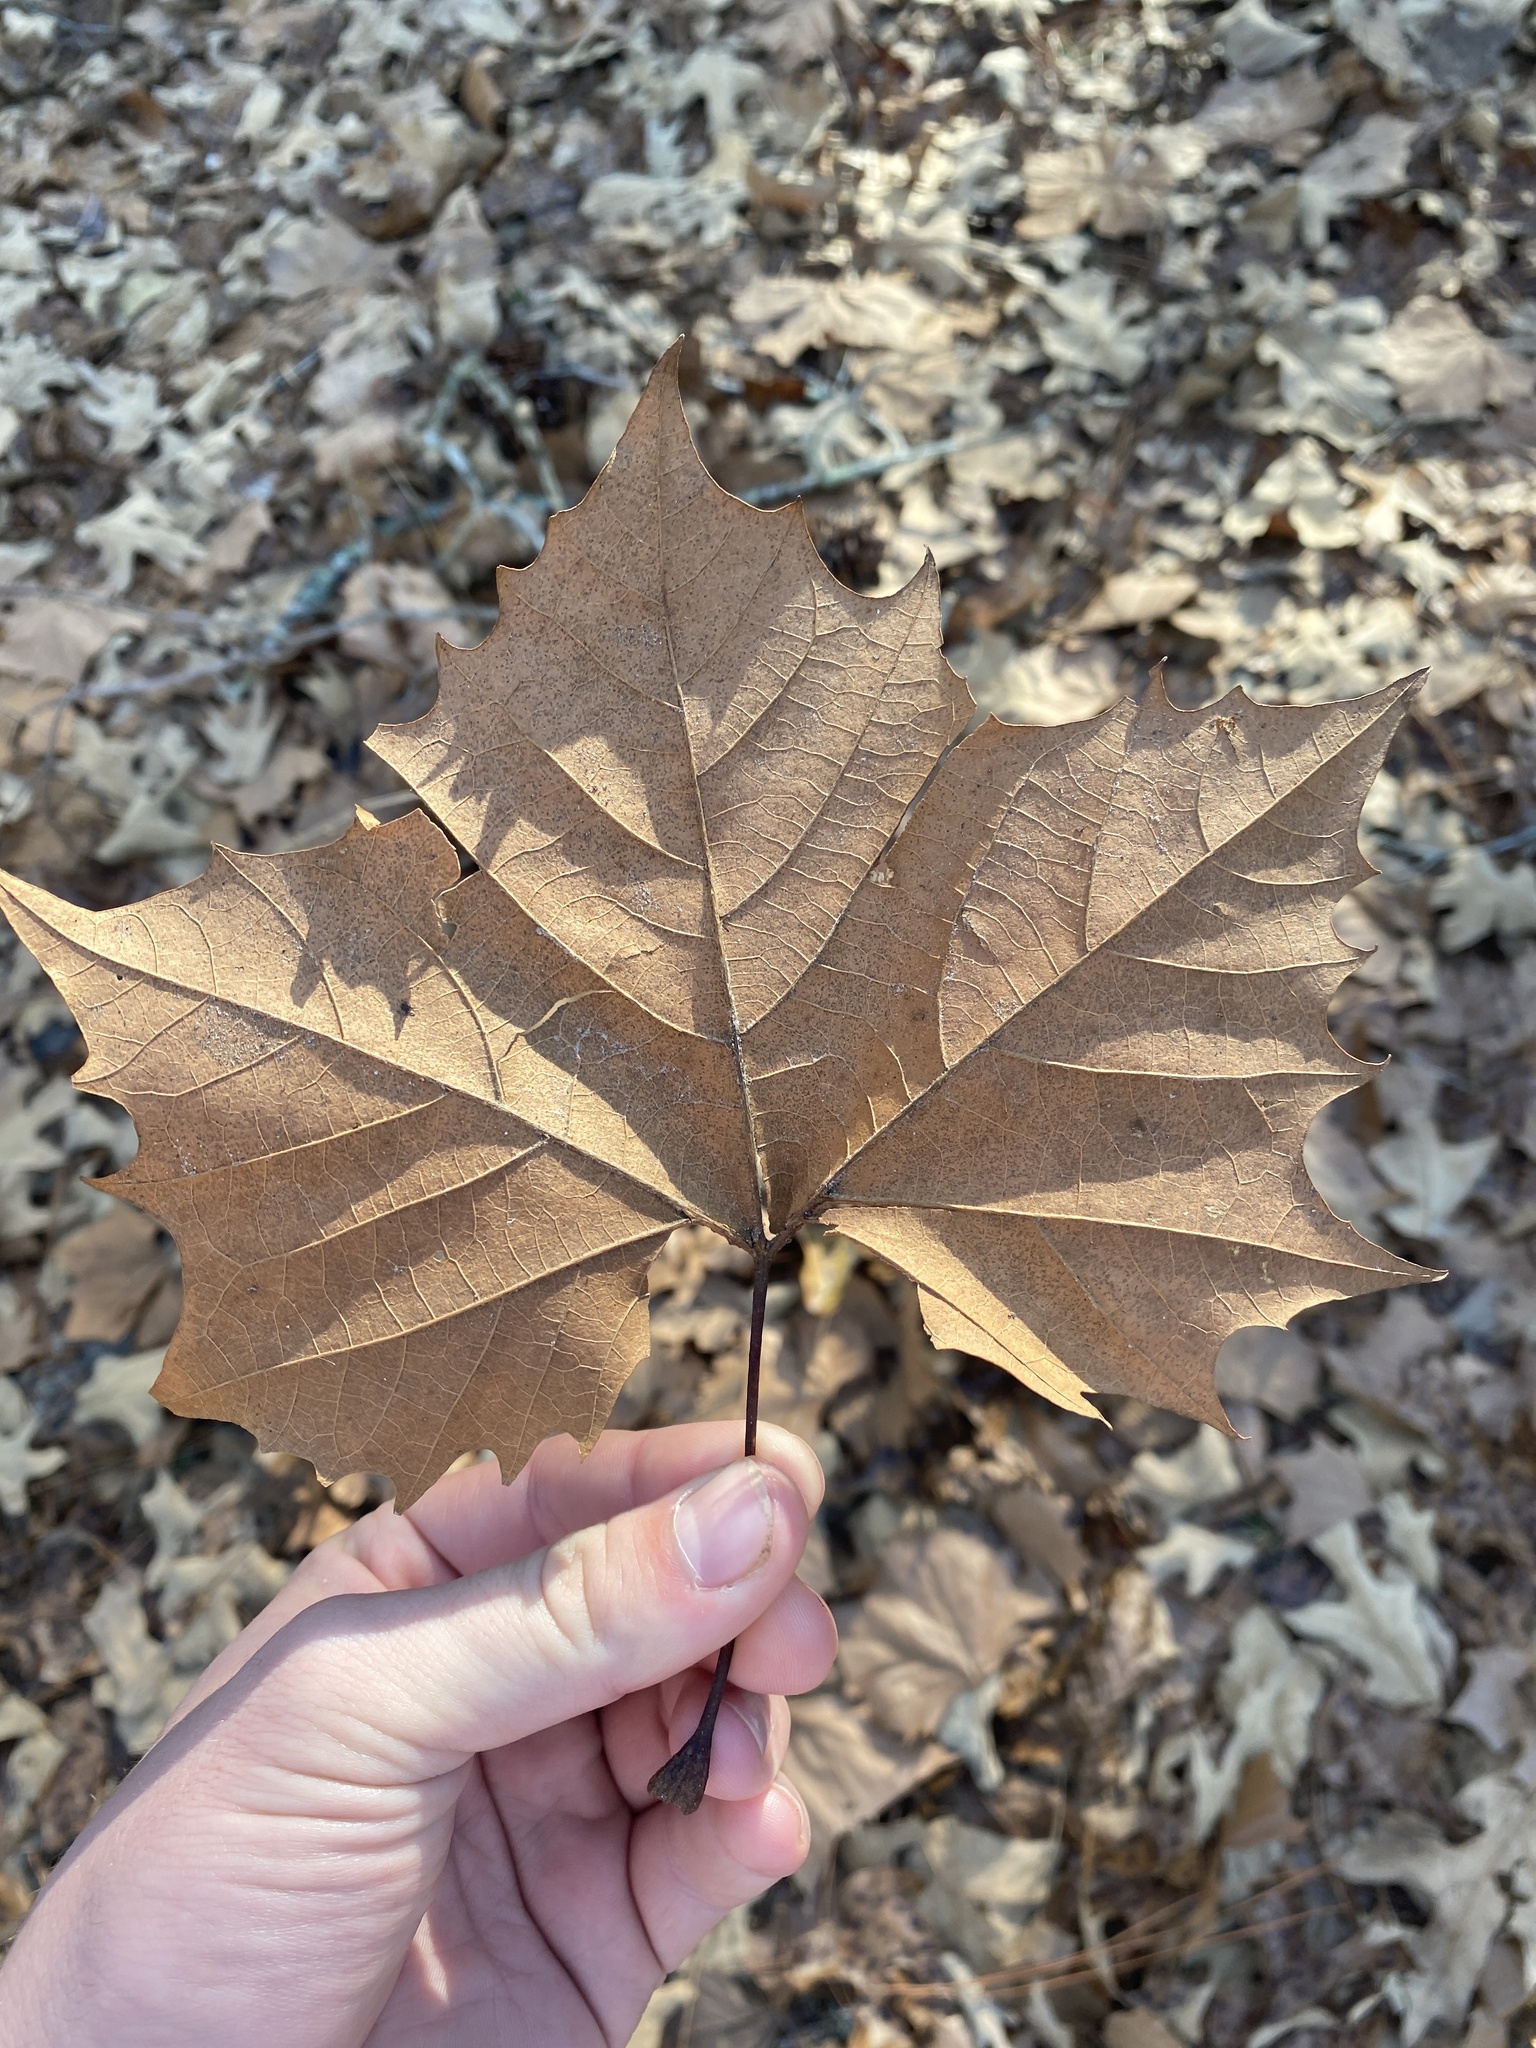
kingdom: Plantae
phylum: Tracheophyta
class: Magnoliopsida
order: Proteales
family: Platanaceae
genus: Platanus
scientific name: Platanus occidentalis
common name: American sycamore
